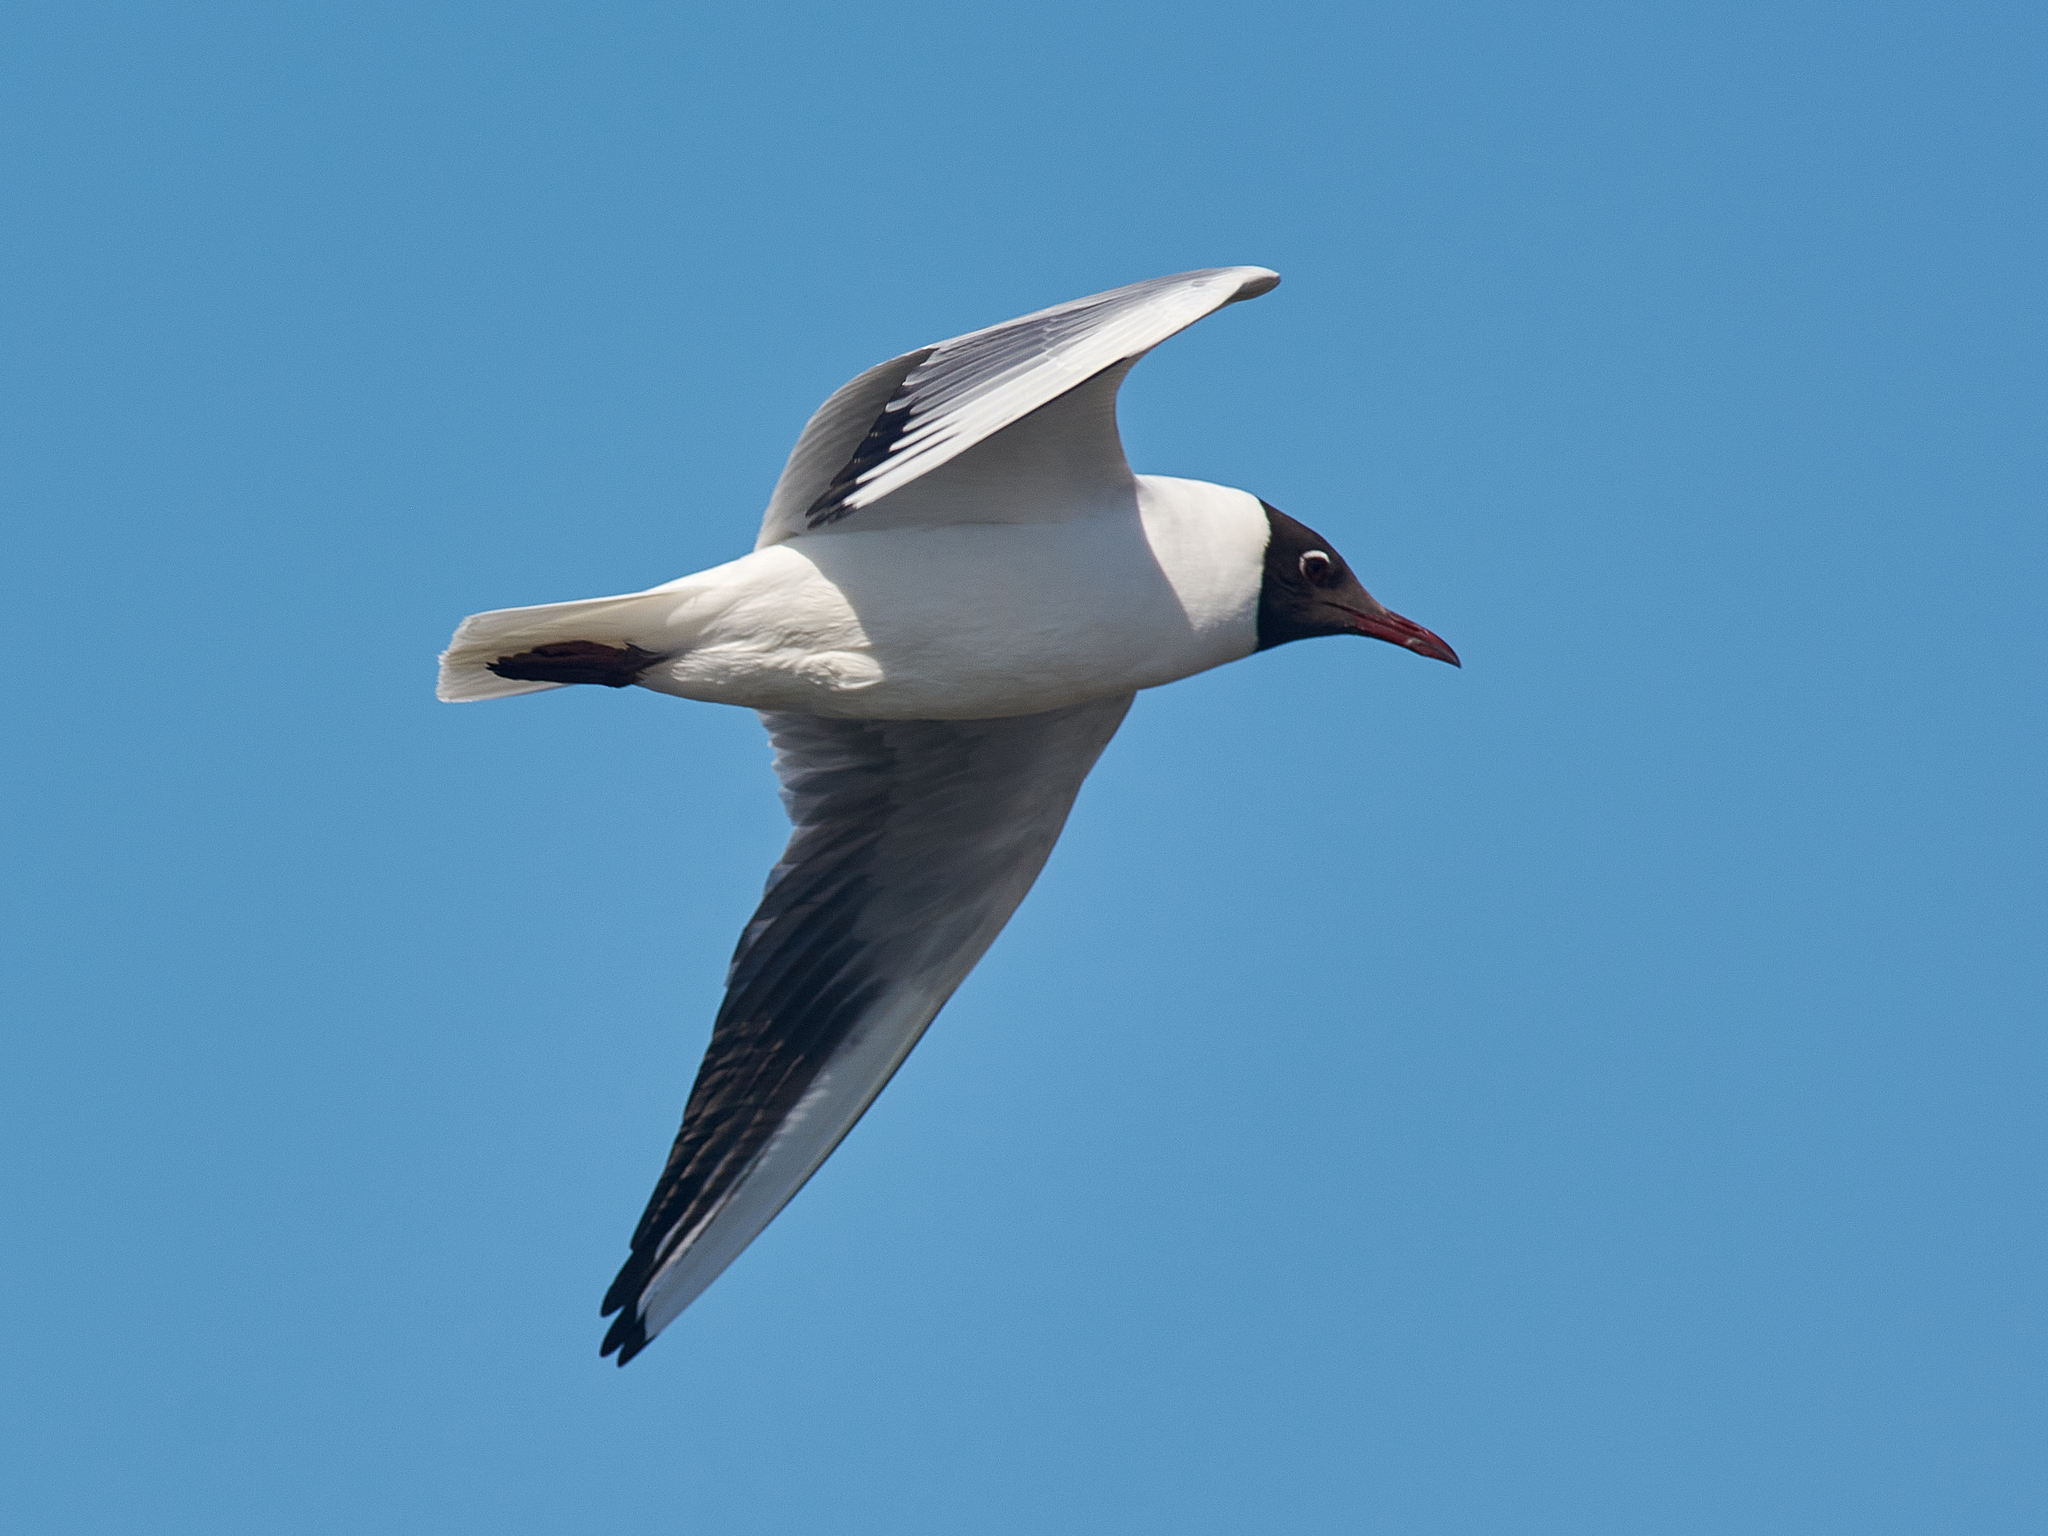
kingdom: Animalia
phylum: Chordata
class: Aves
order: Charadriiformes
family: Laridae
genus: Chroicocephalus
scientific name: Chroicocephalus ridibundus
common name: Black-headed gull
